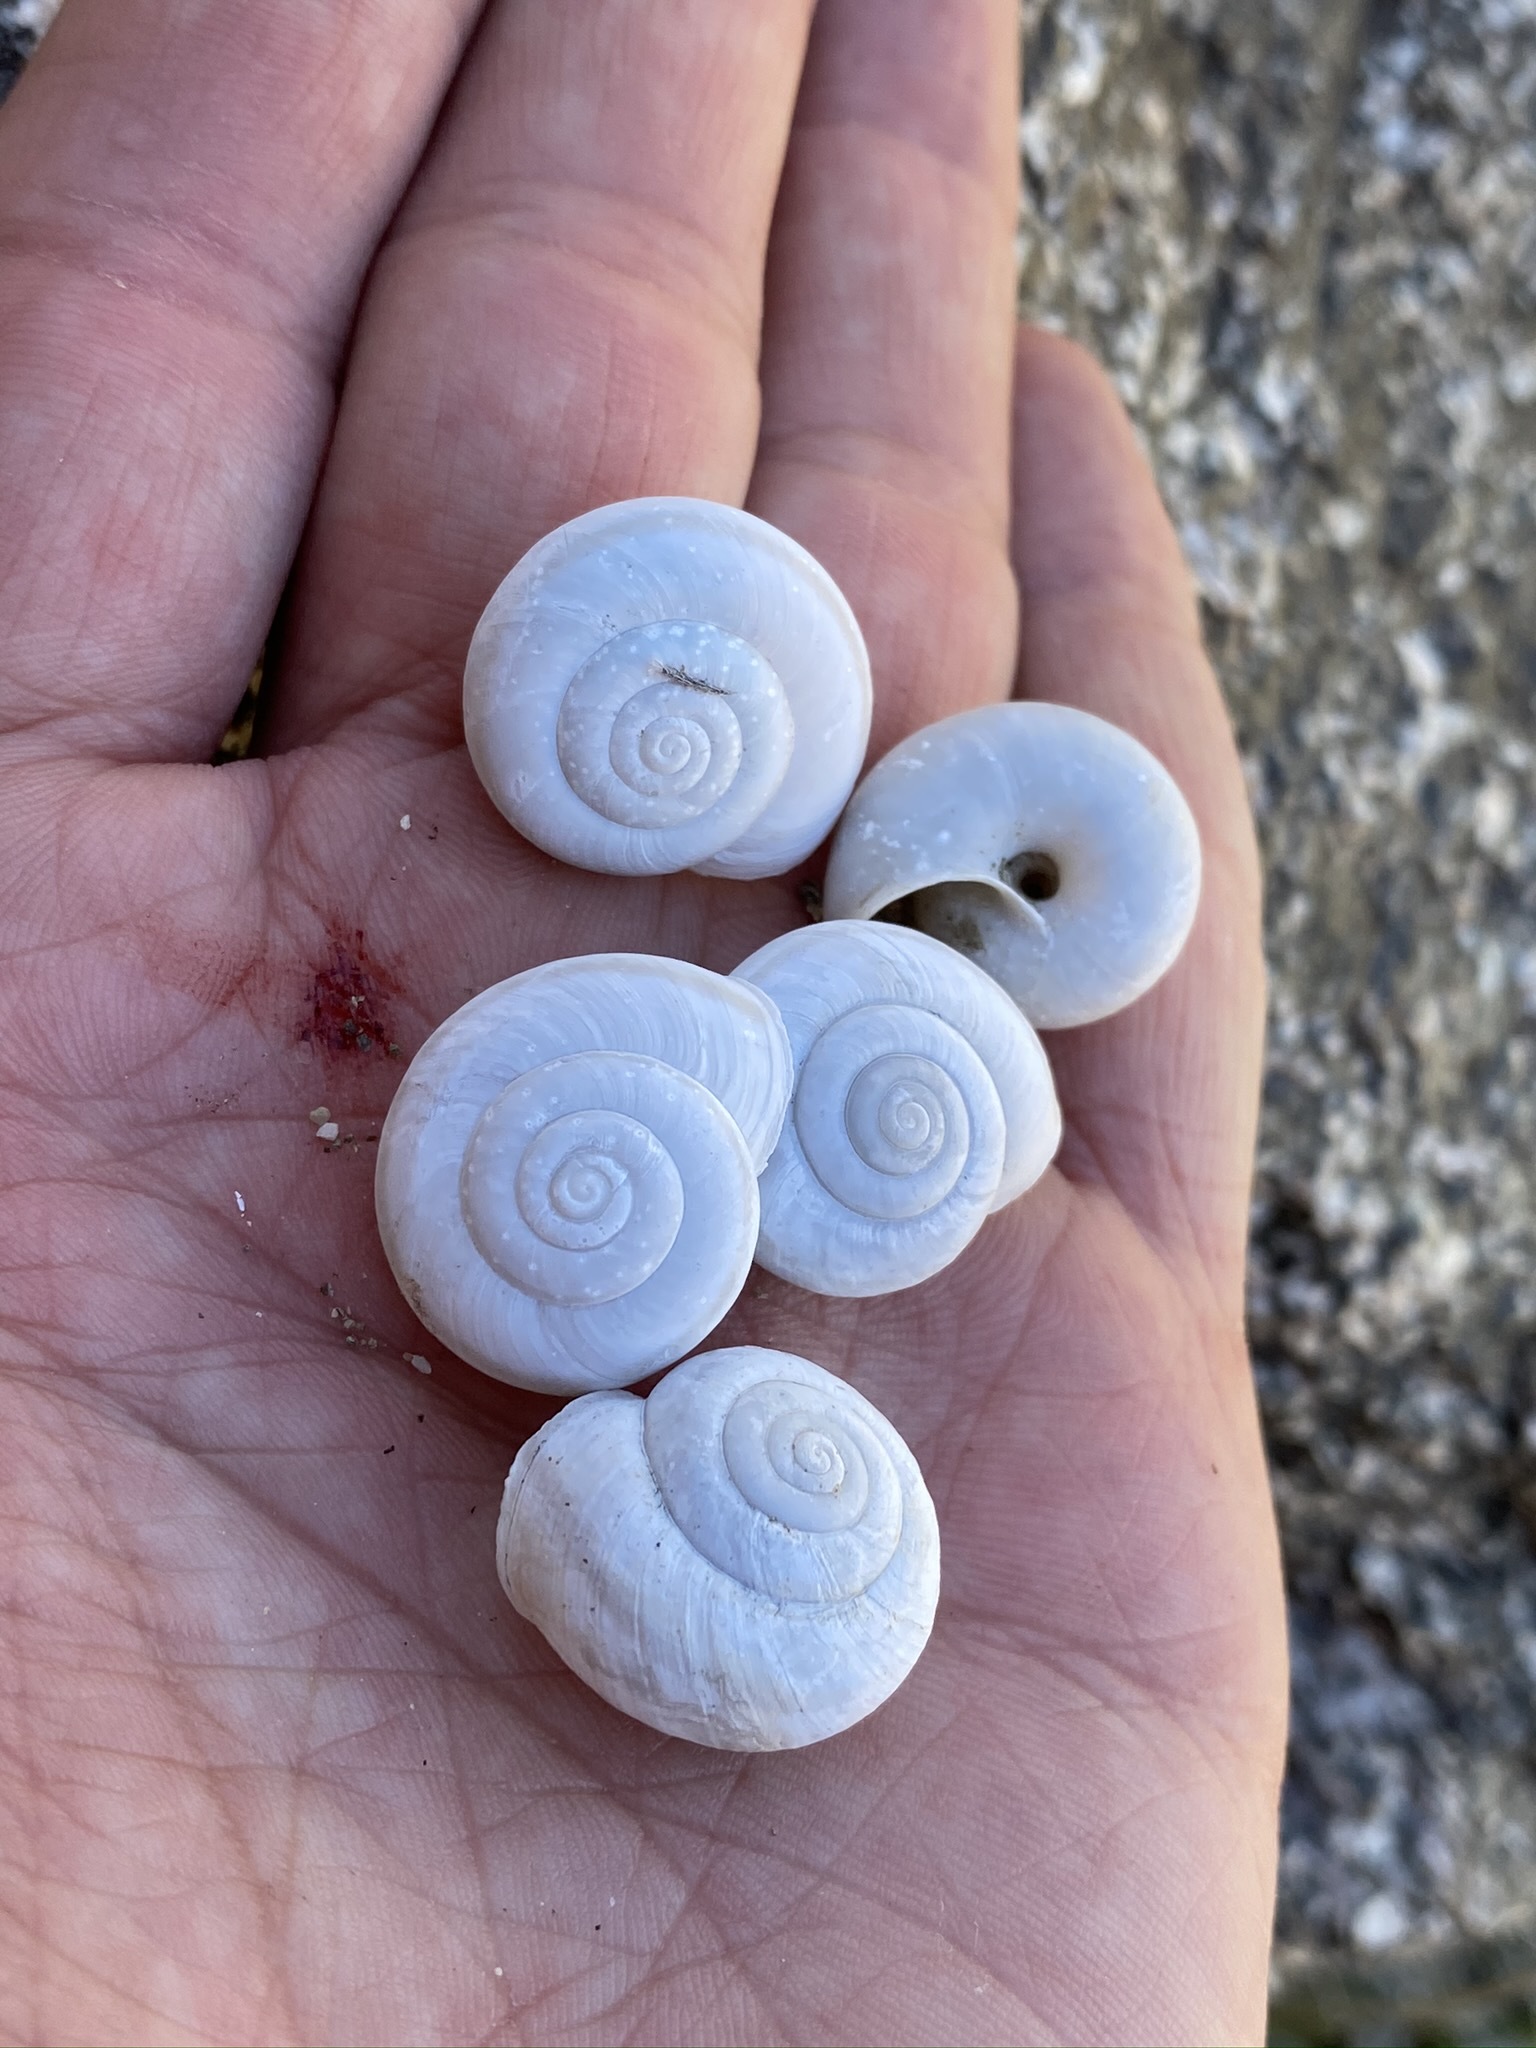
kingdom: Animalia
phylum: Mollusca
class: Gastropoda
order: Stylommatophora
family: Xanthonychidae
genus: Sonorelix
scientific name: Sonorelix borregoensis
